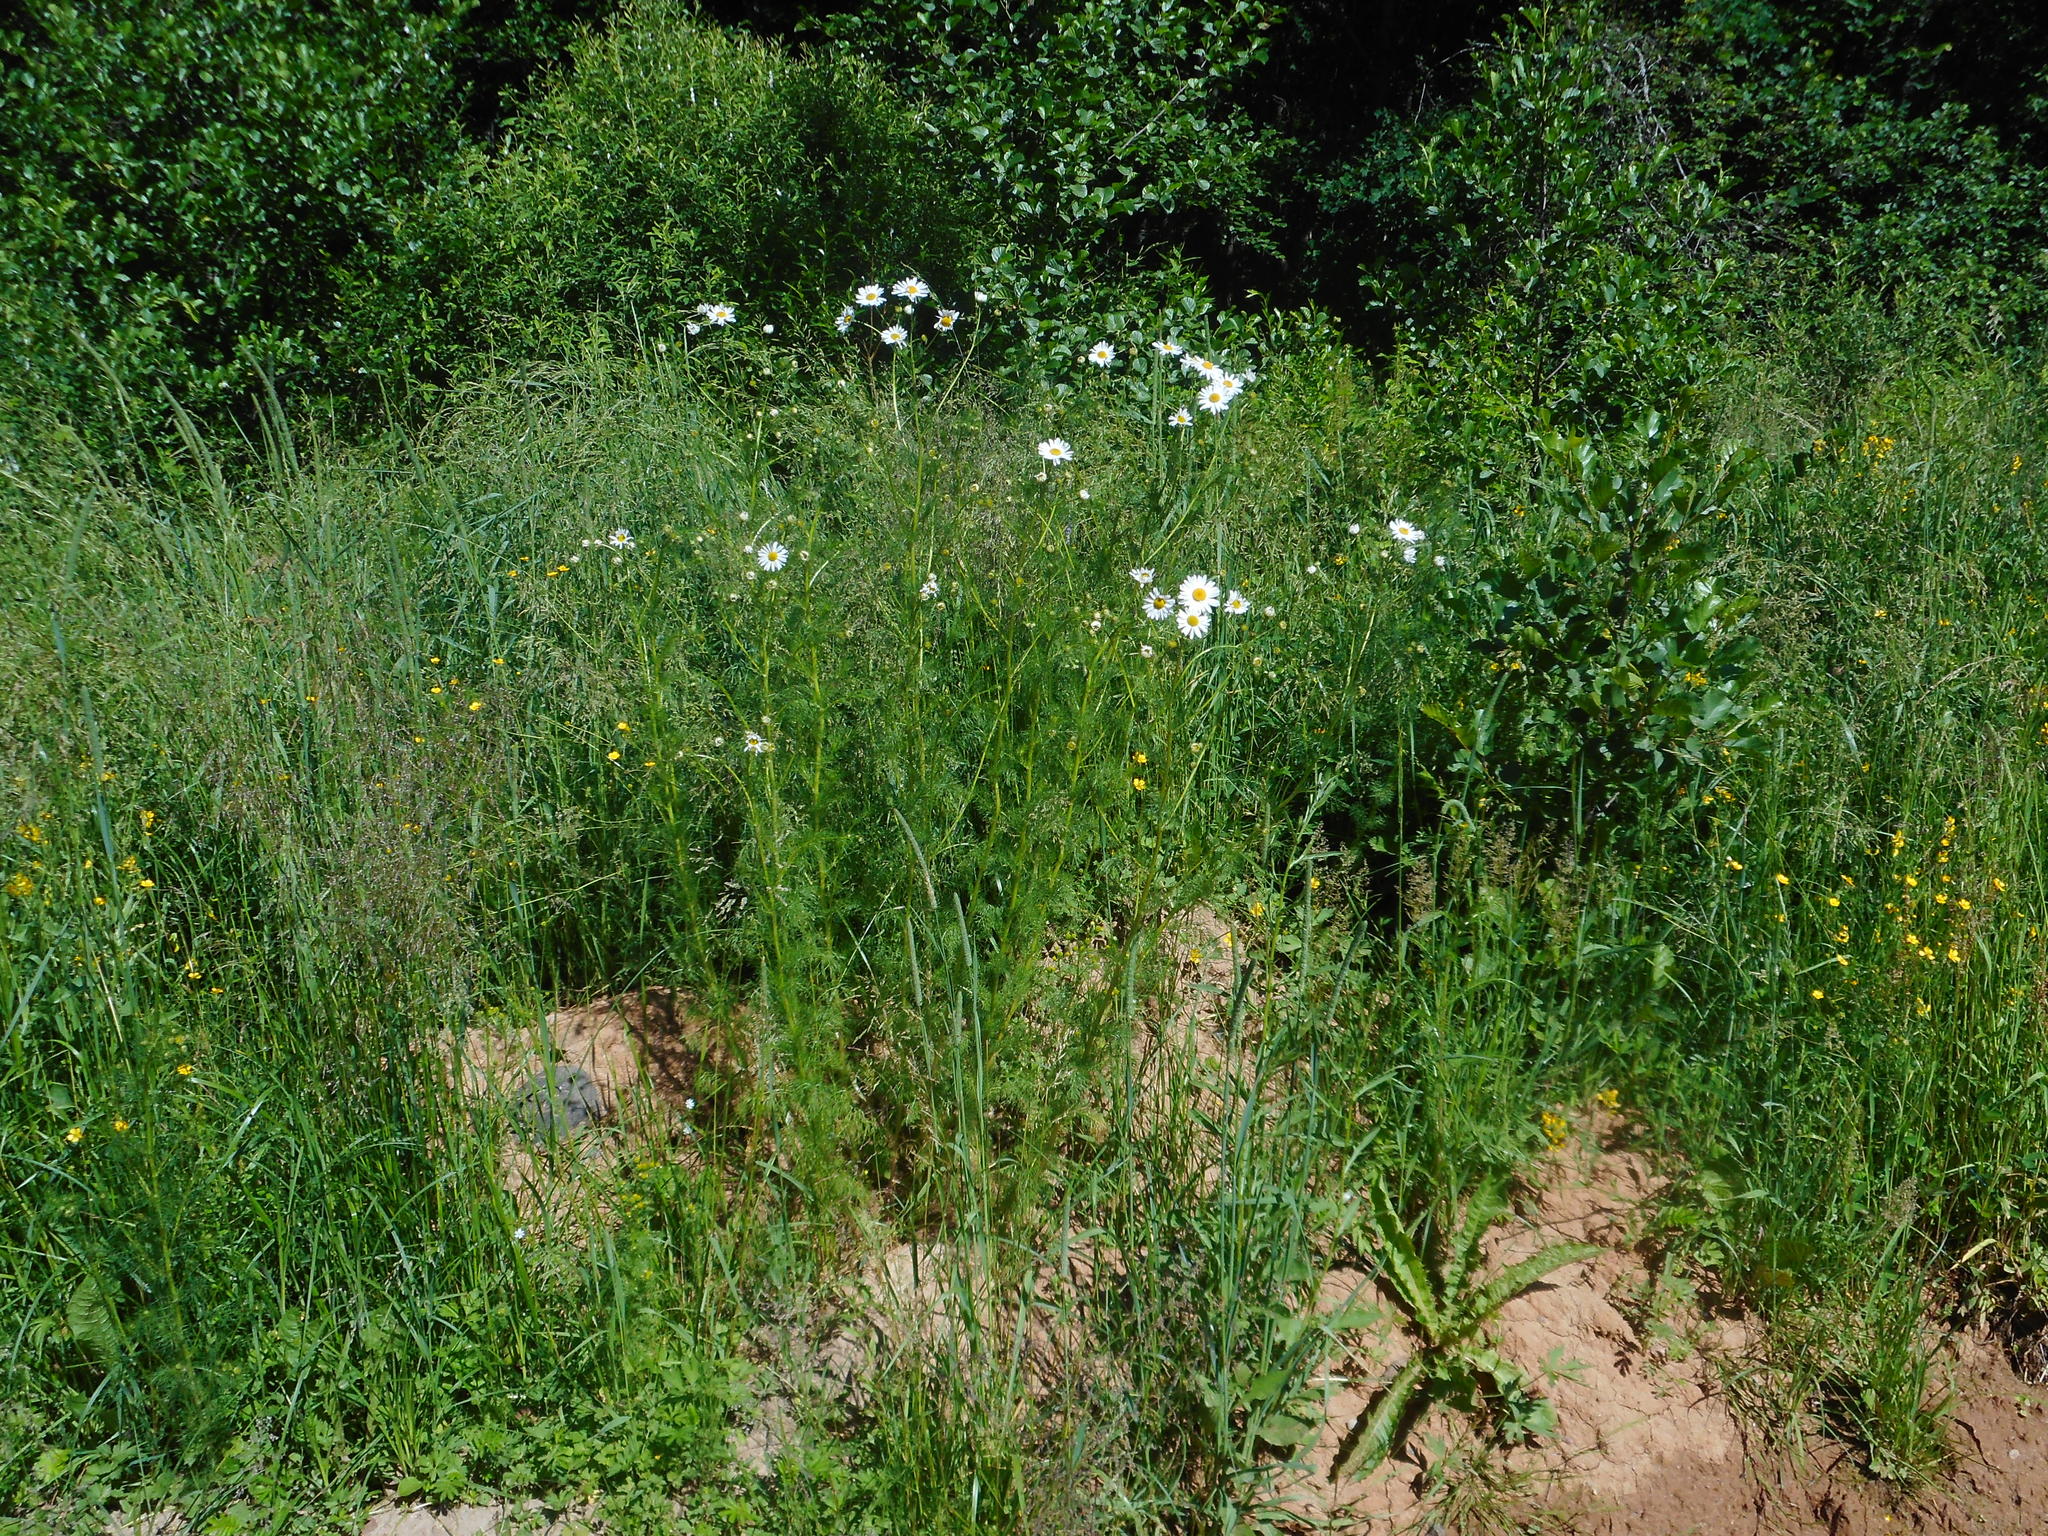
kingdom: Plantae
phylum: Tracheophyta
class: Magnoliopsida
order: Asterales
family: Asteraceae
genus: Tripleurospermum
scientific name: Tripleurospermum inodorum
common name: Scentless mayweed
